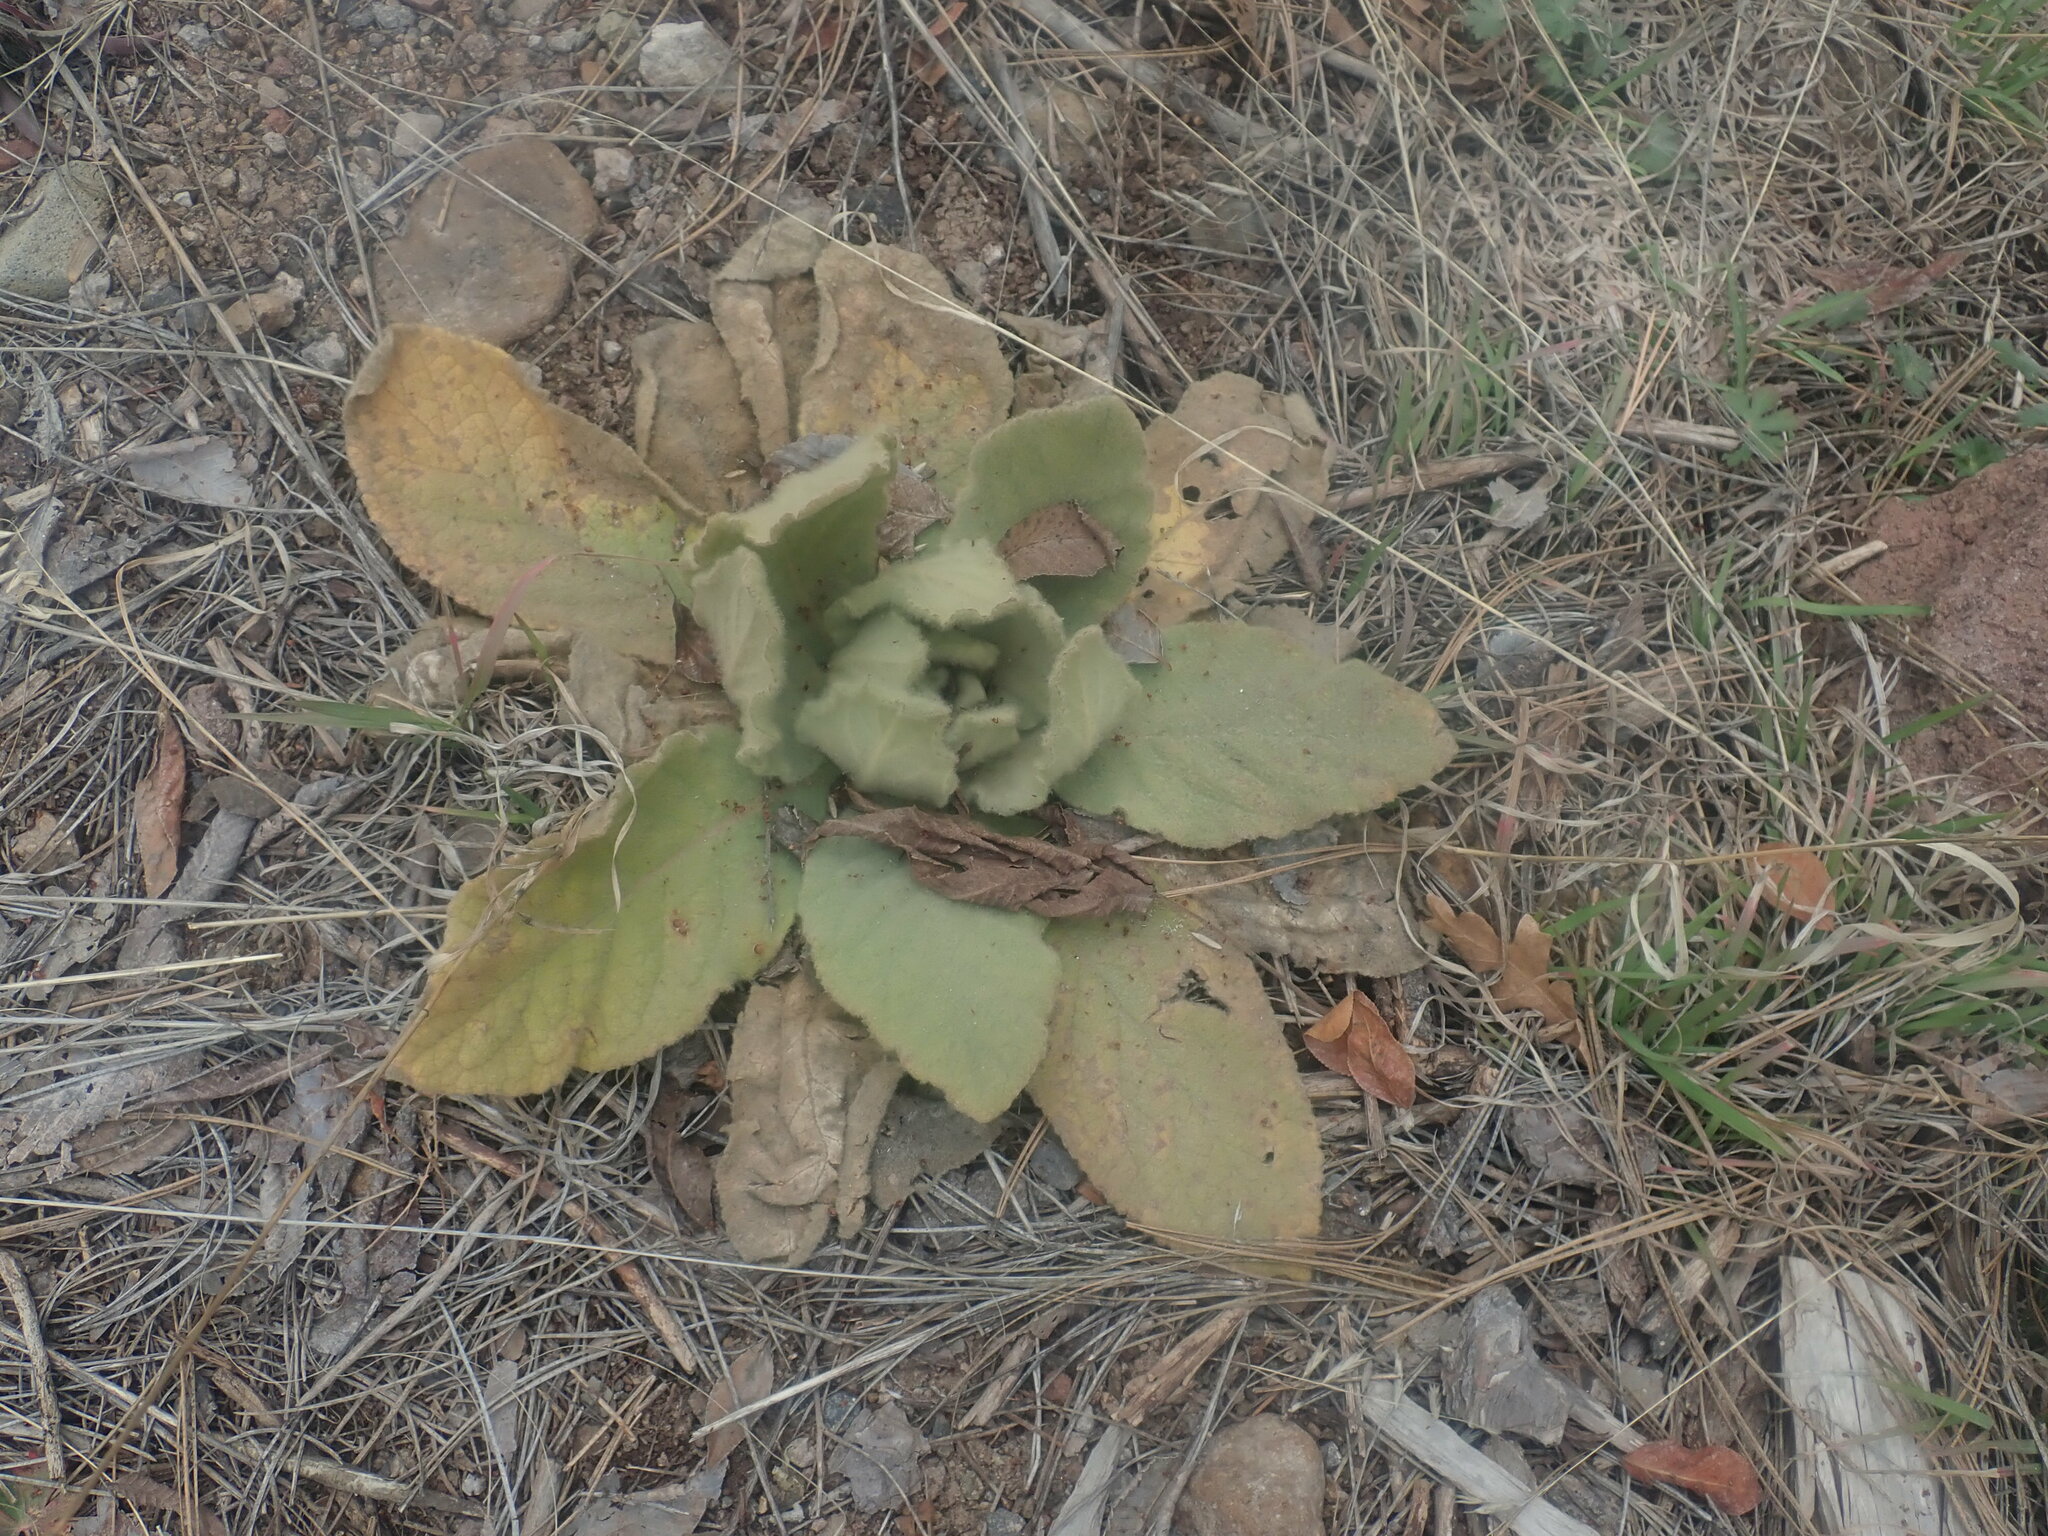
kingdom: Plantae
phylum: Tracheophyta
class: Magnoliopsida
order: Lamiales
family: Scrophulariaceae
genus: Verbascum
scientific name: Verbascum thapsus
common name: Common mullein
